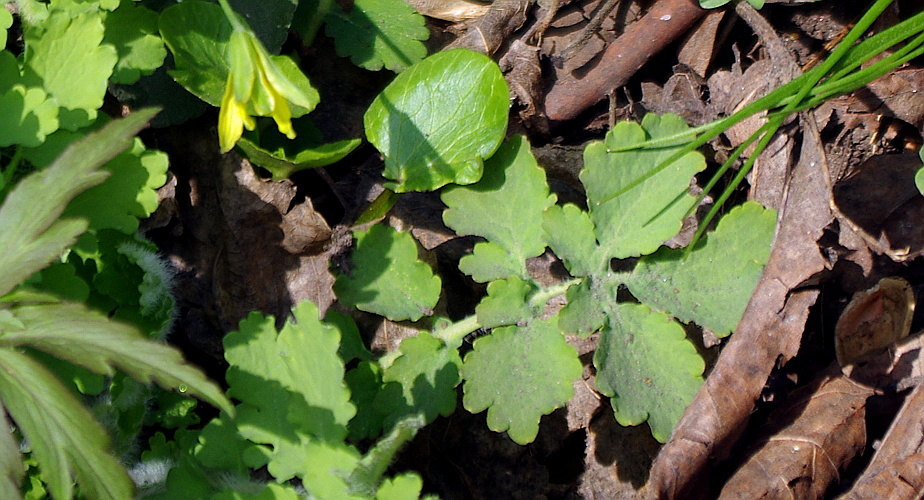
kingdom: Plantae
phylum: Tracheophyta
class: Magnoliopsida
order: Ranunculales
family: Papaveraceae
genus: Chelidonium
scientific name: Chelidonium majus
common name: Greater celandine
